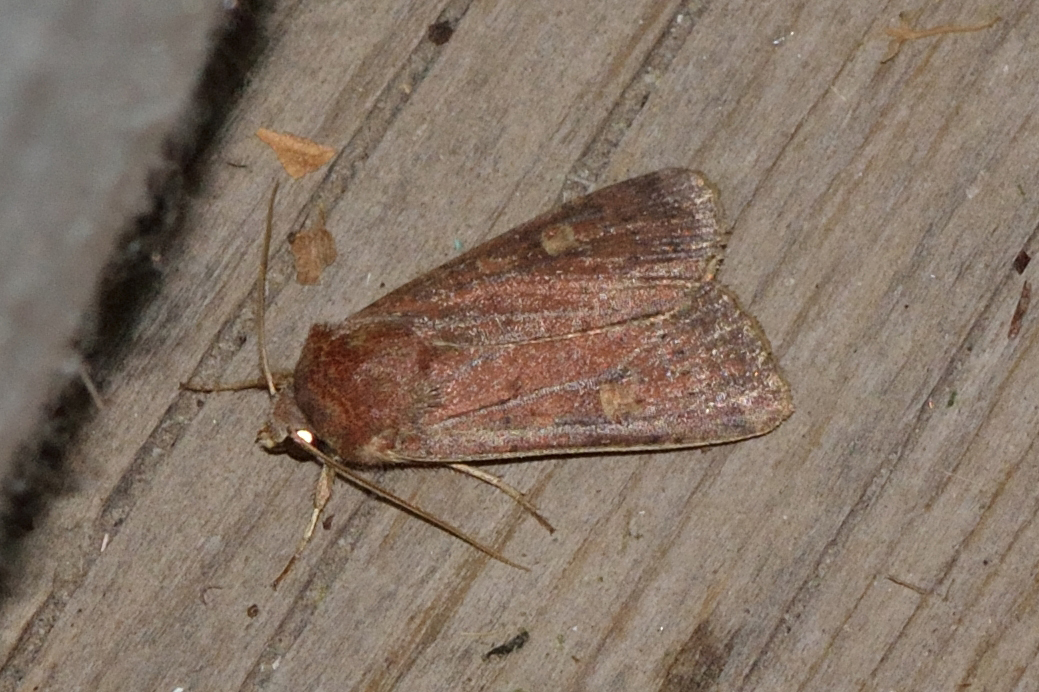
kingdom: Animalia
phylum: Arthropoda
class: Insecta
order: Lepidoptera
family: Noctuidae
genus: Xestia
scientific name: Xestia xanthographa
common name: Square-spot rustic
